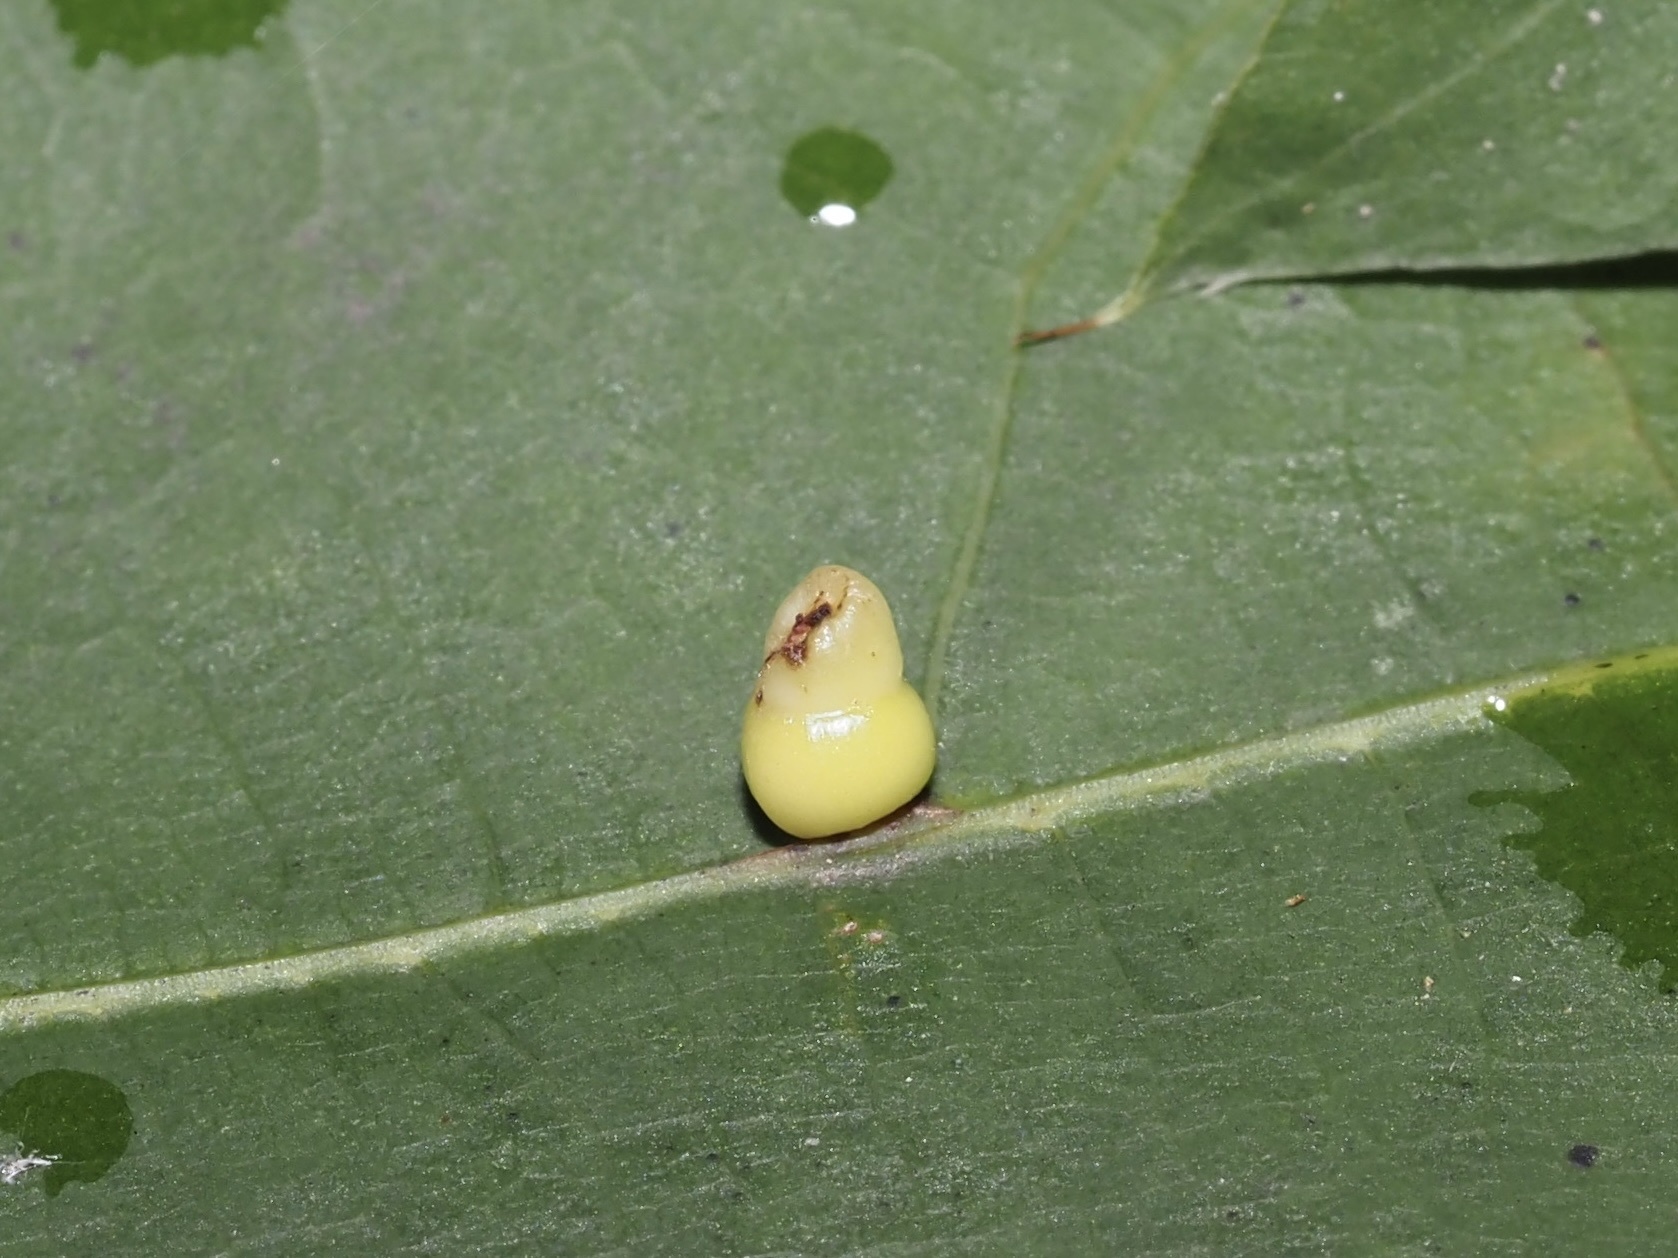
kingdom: Animalia
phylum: Arthropoda
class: Insecta
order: Hymenoptera
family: Cynipidae
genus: Kokkocynips
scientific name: Kokkocynips rileyi
